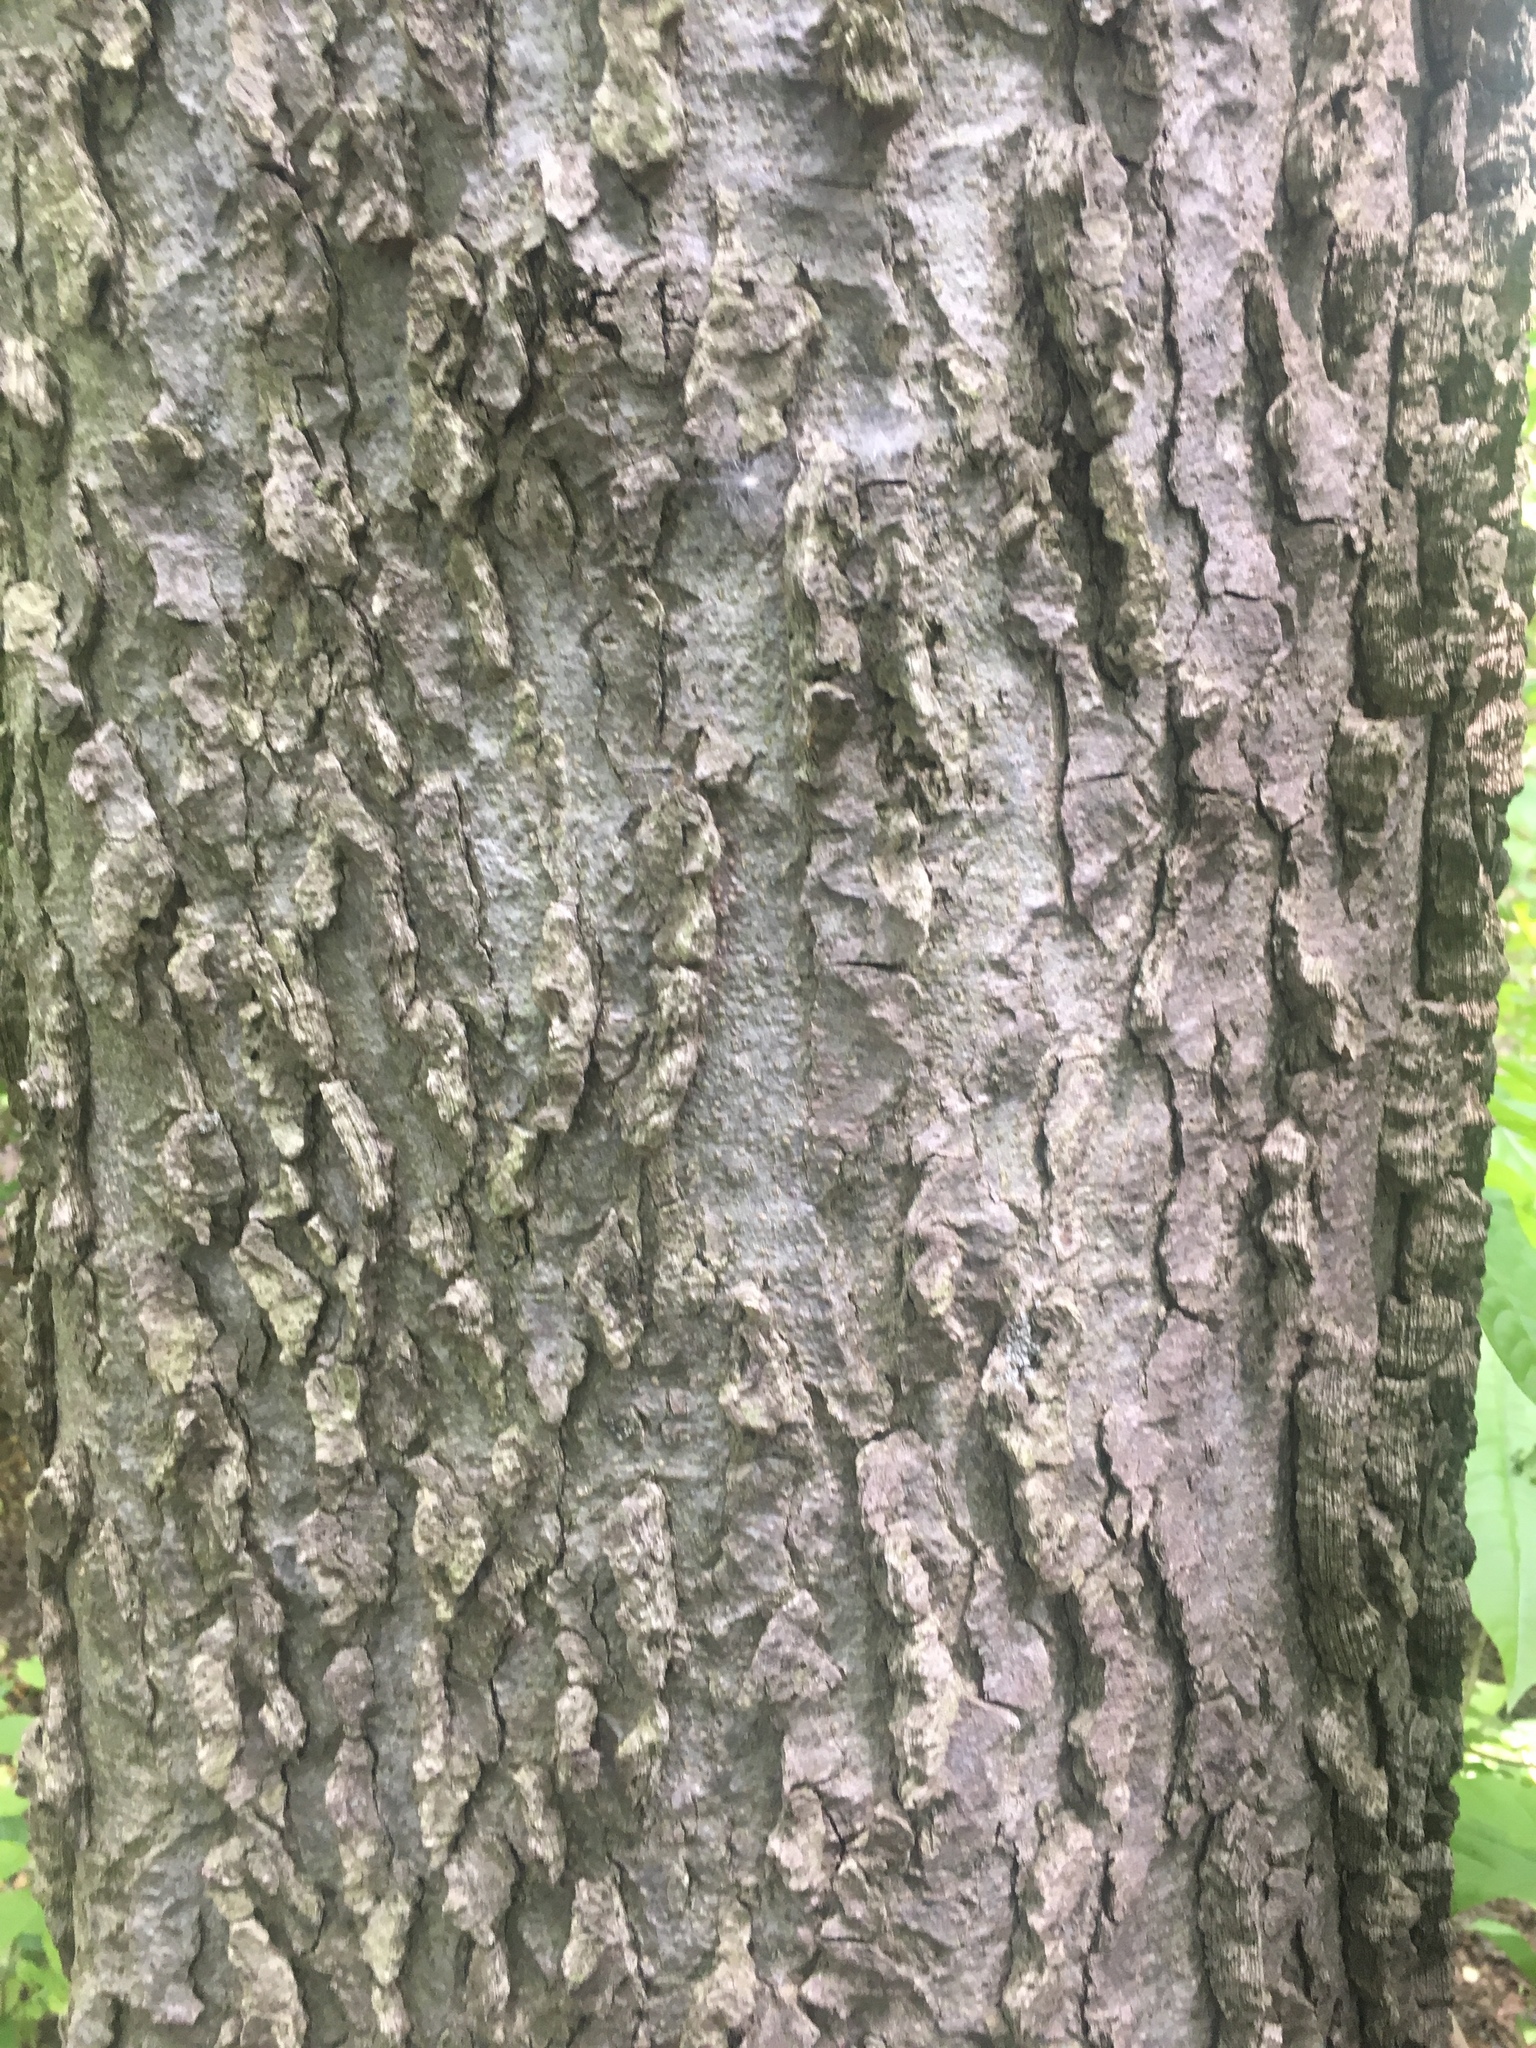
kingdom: Plantae
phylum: Tracheophyta
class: Magnoliopsida
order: Rosales
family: Cannabaceae
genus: Celtis
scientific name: Celtis occidentalis
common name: Common hackberry
